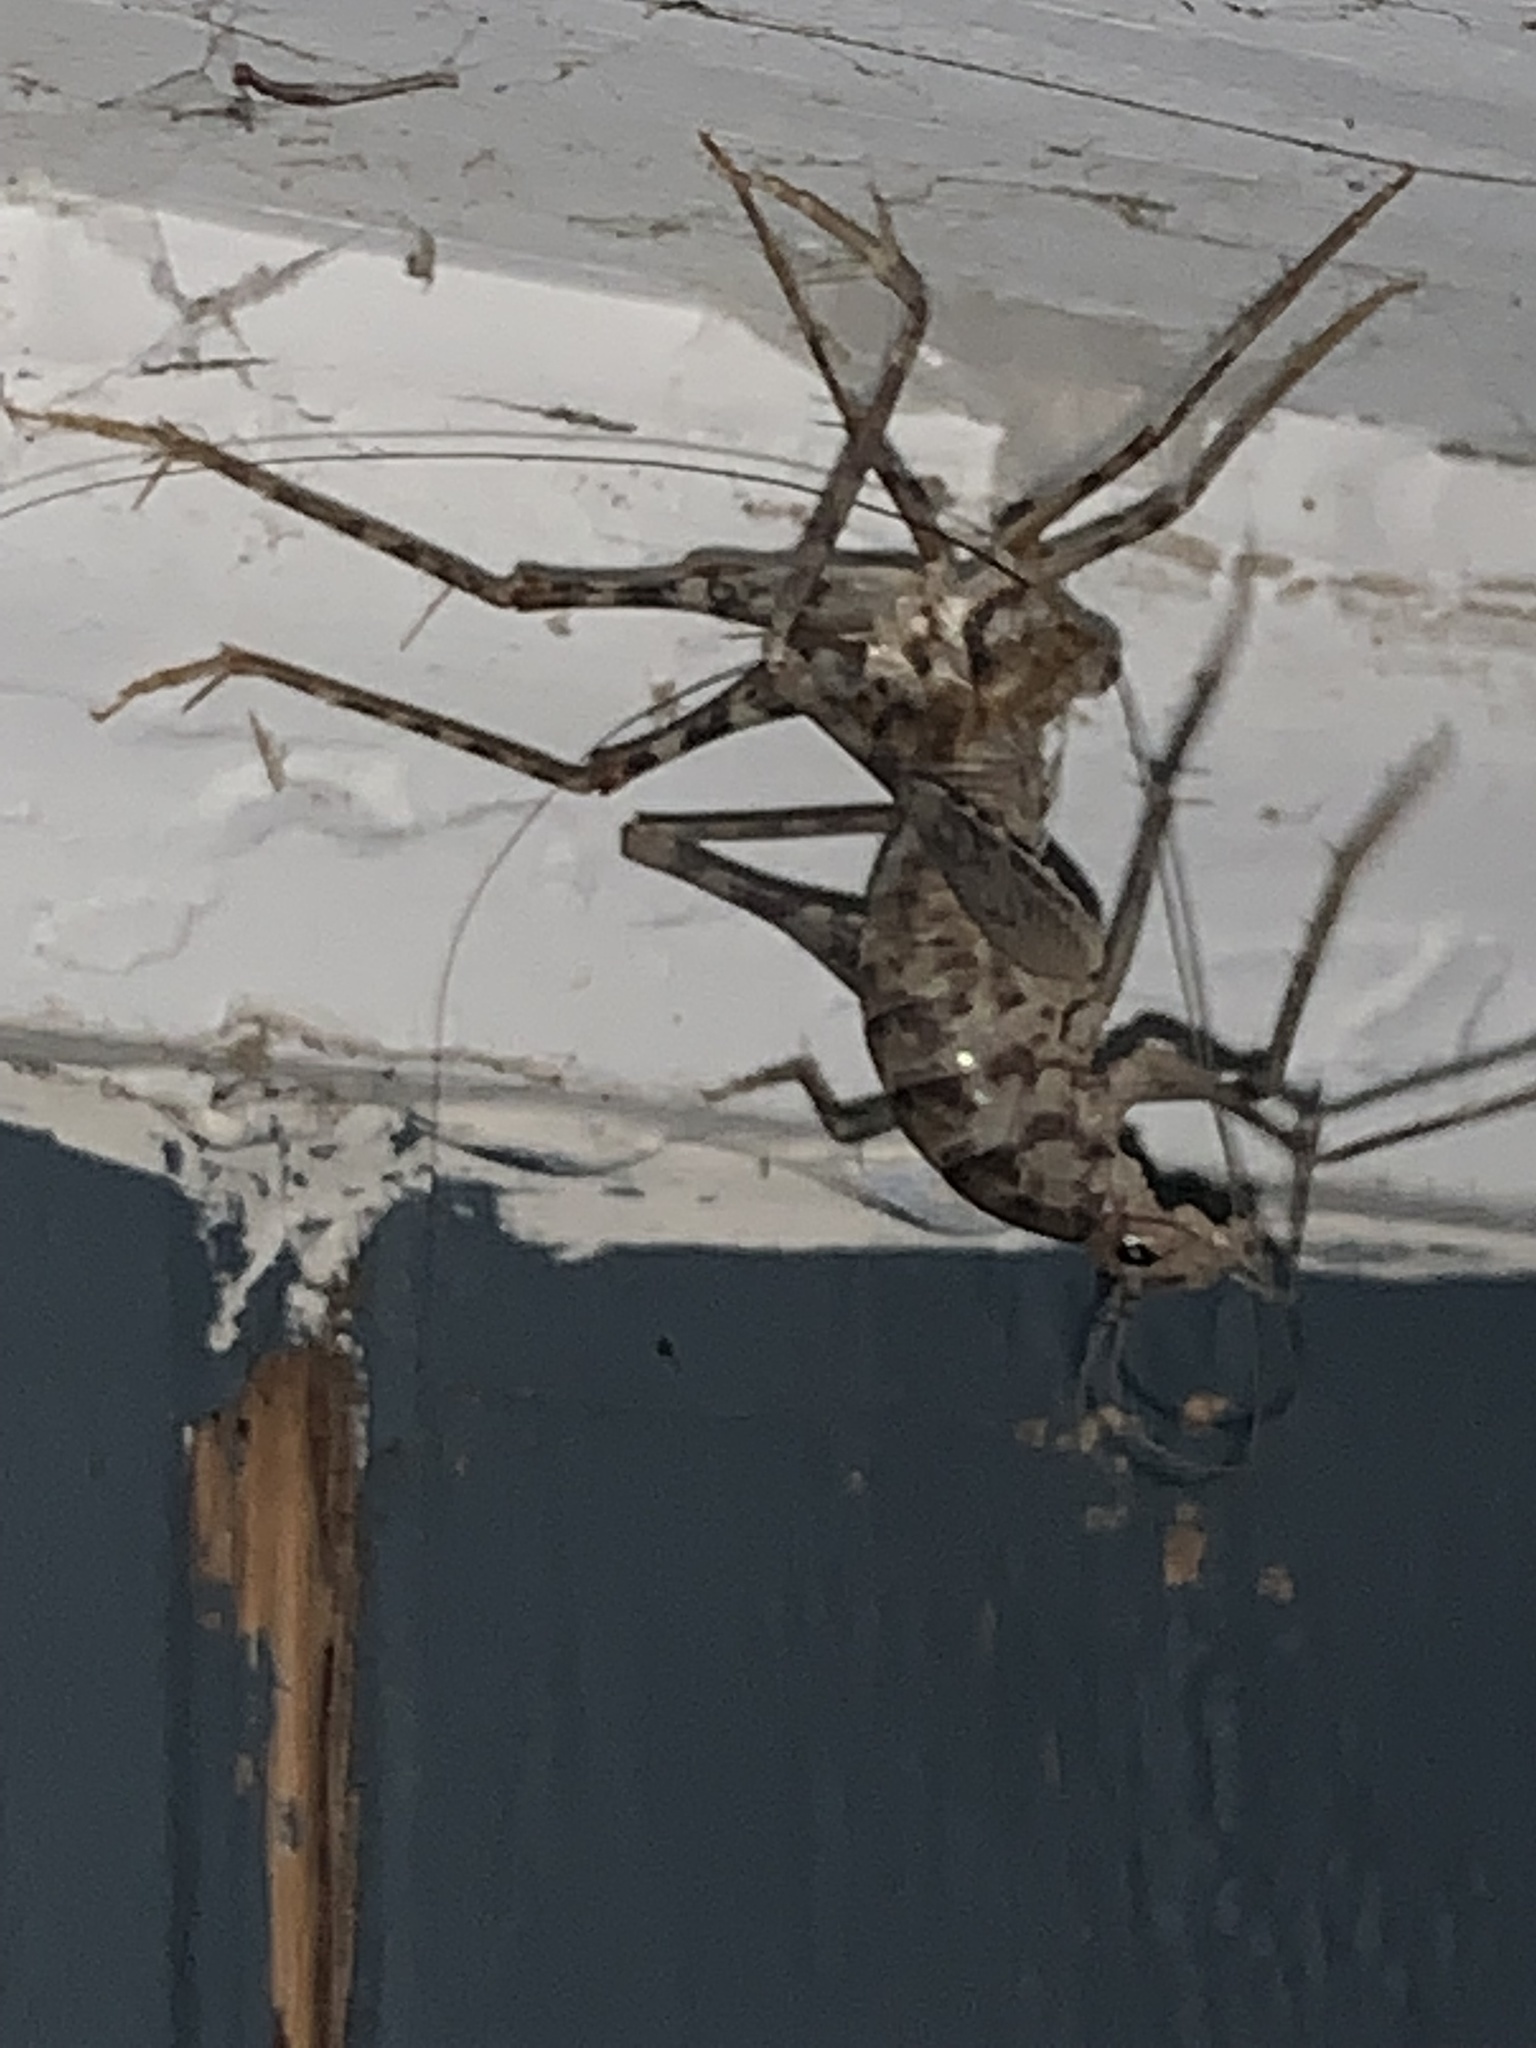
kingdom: Animalia
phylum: Arthropoda
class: Insecta
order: Orthoptera
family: Rhaphidophoridae
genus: Tachycines
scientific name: Tachycines asynamorus
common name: Greenhouse camel cricket
